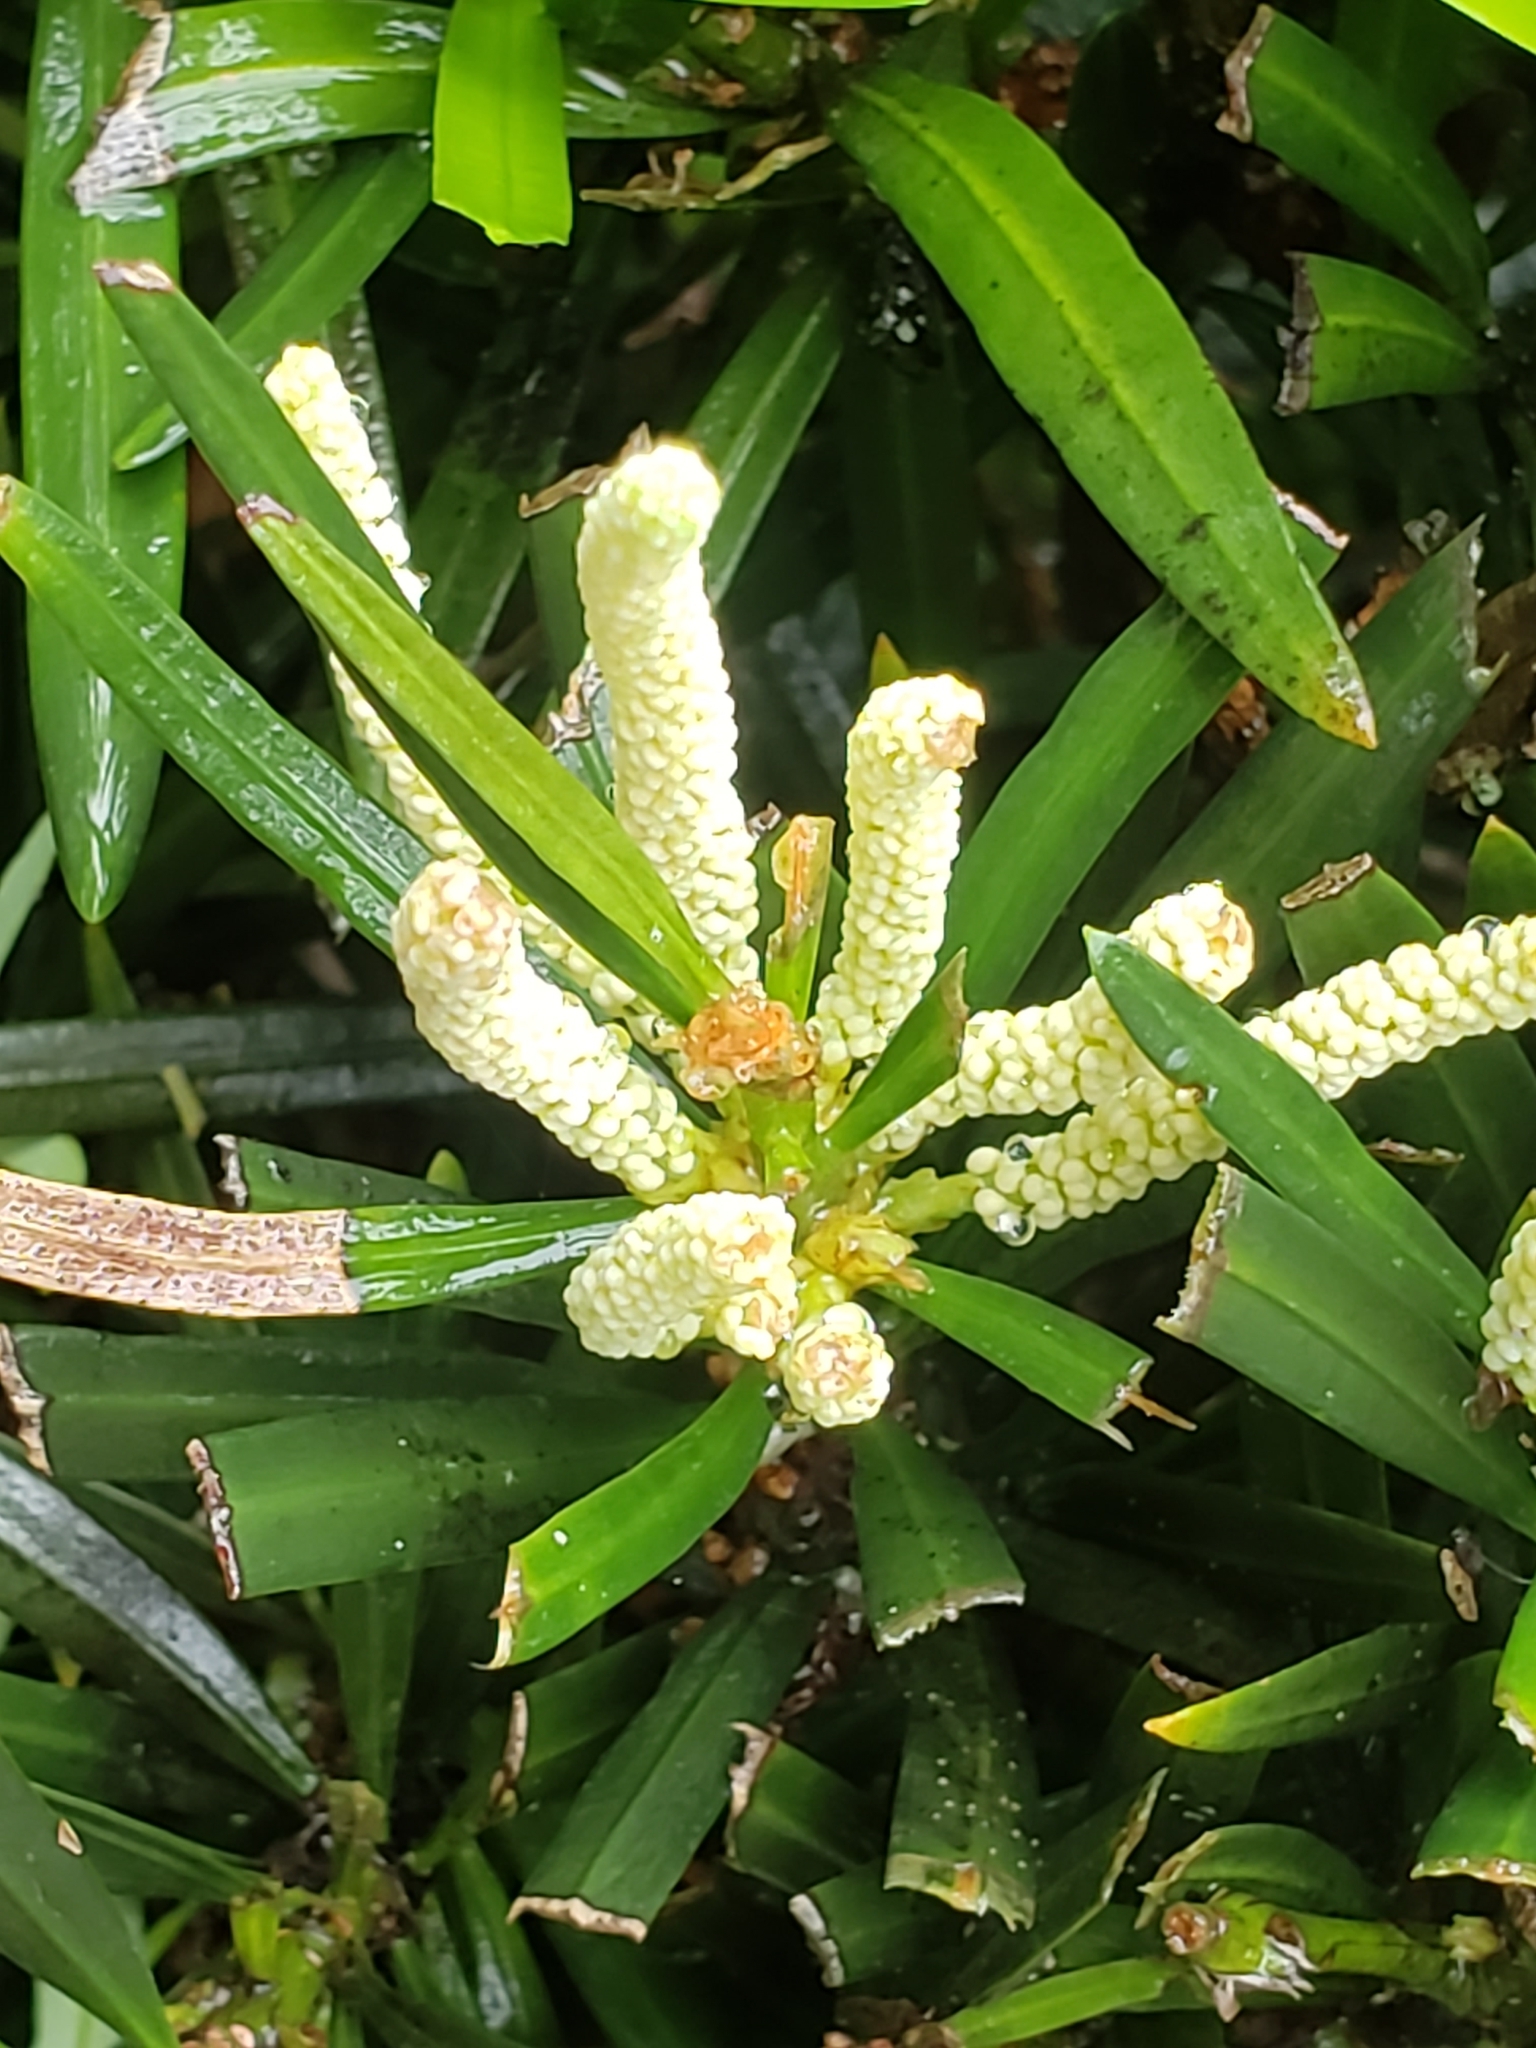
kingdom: Plantae
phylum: Tracheophyta
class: Pinopsida
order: Pinales
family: Podocarpaceae
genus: Podocarpus
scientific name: Podocarpus macrophyllus
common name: Japanese yew
